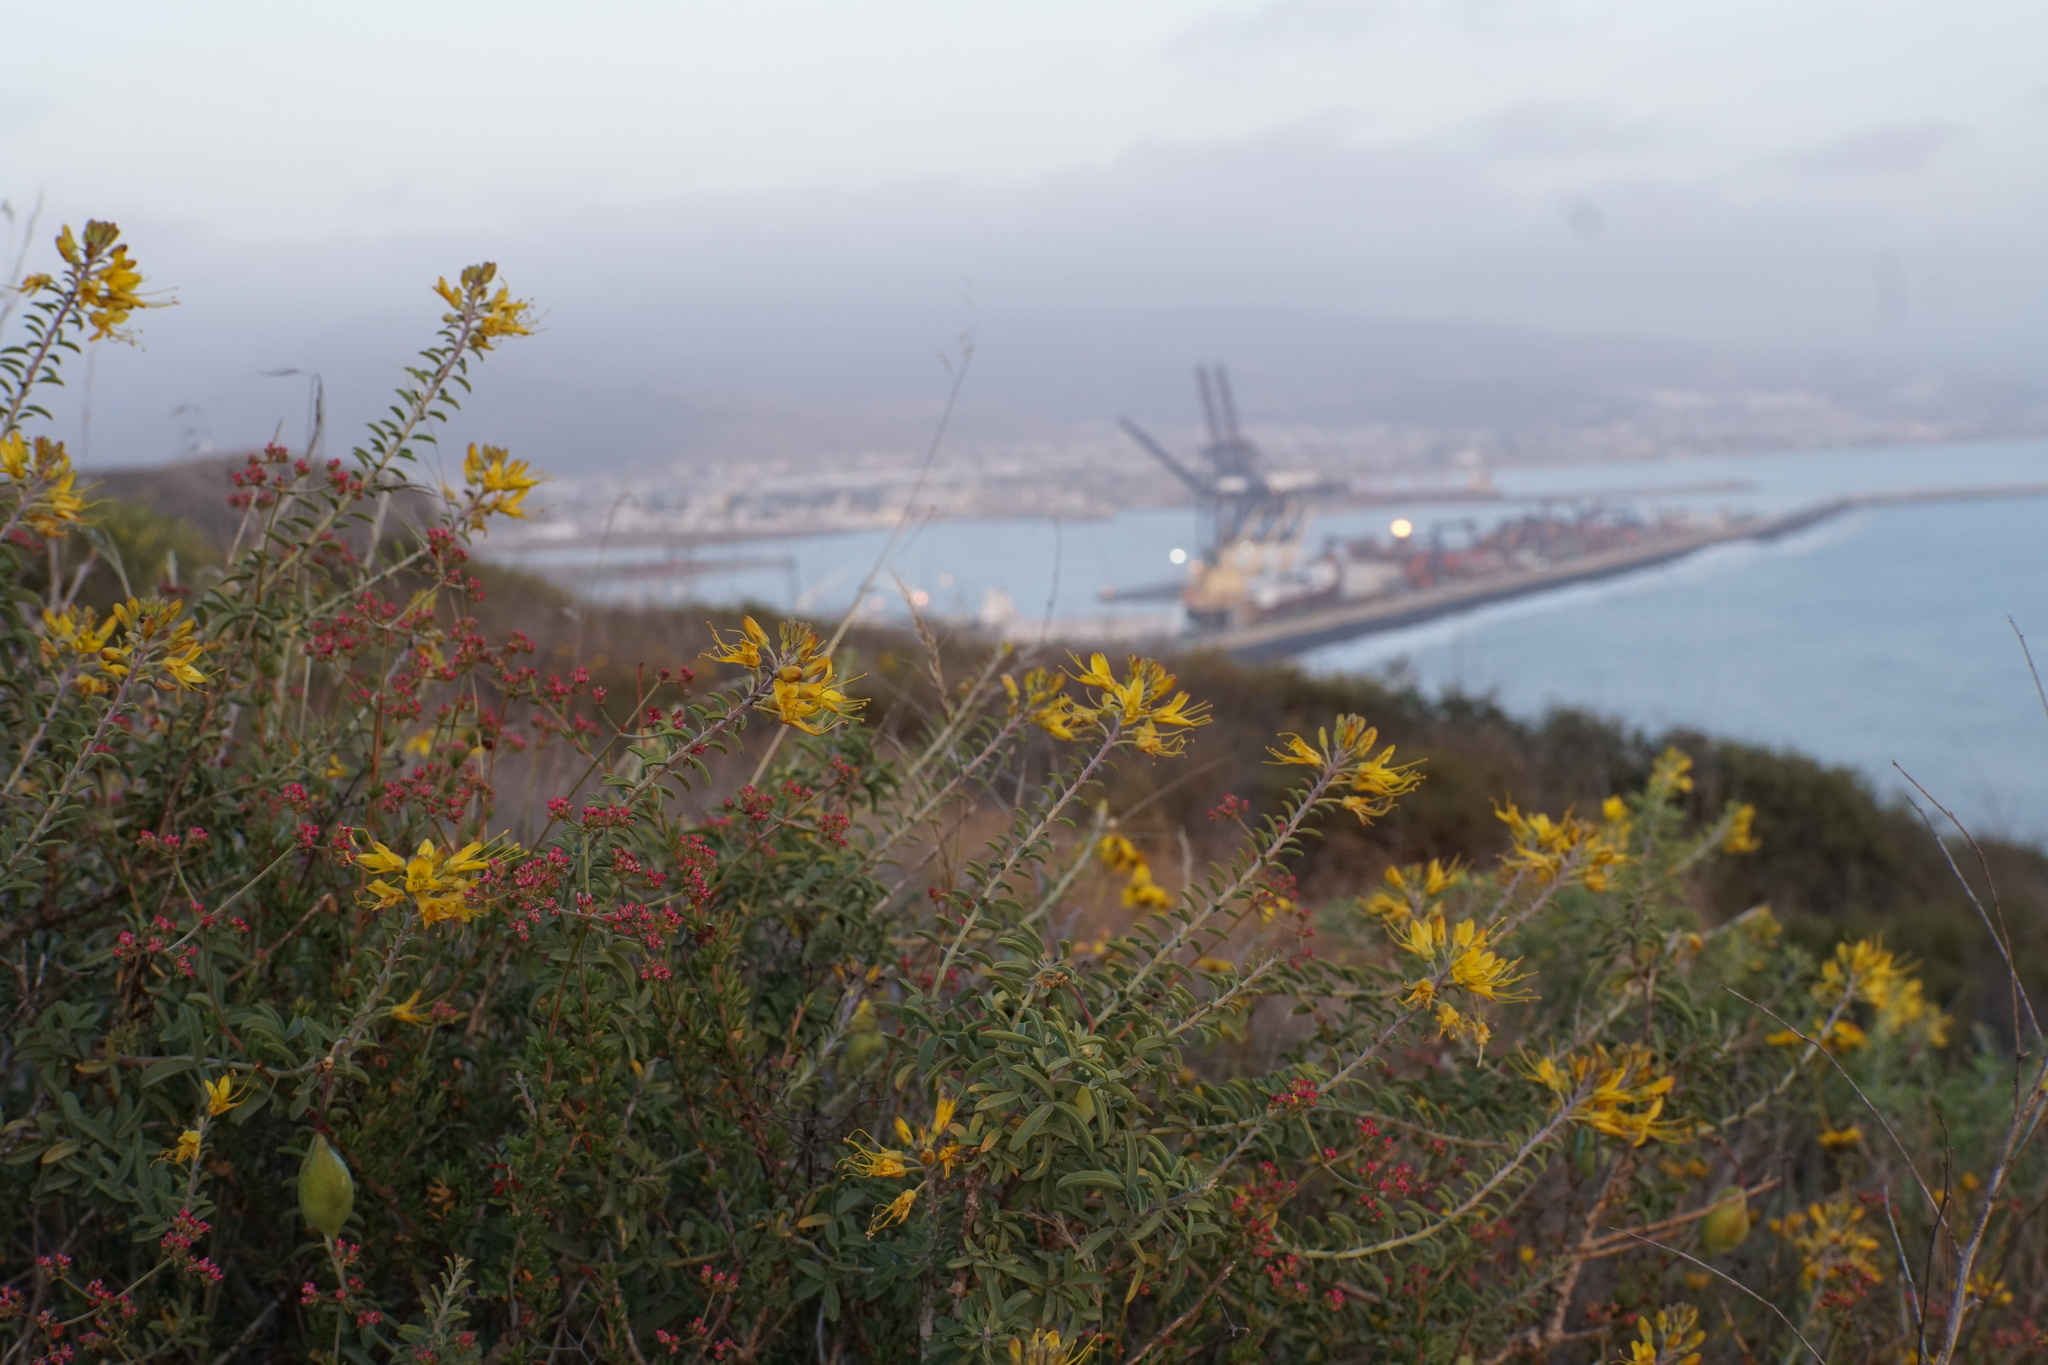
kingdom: Plantae
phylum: Tracheophyta
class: Magnoliopsida
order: Brassicales
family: Cleomaceae
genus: Cleomella
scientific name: Cleomella arborea
